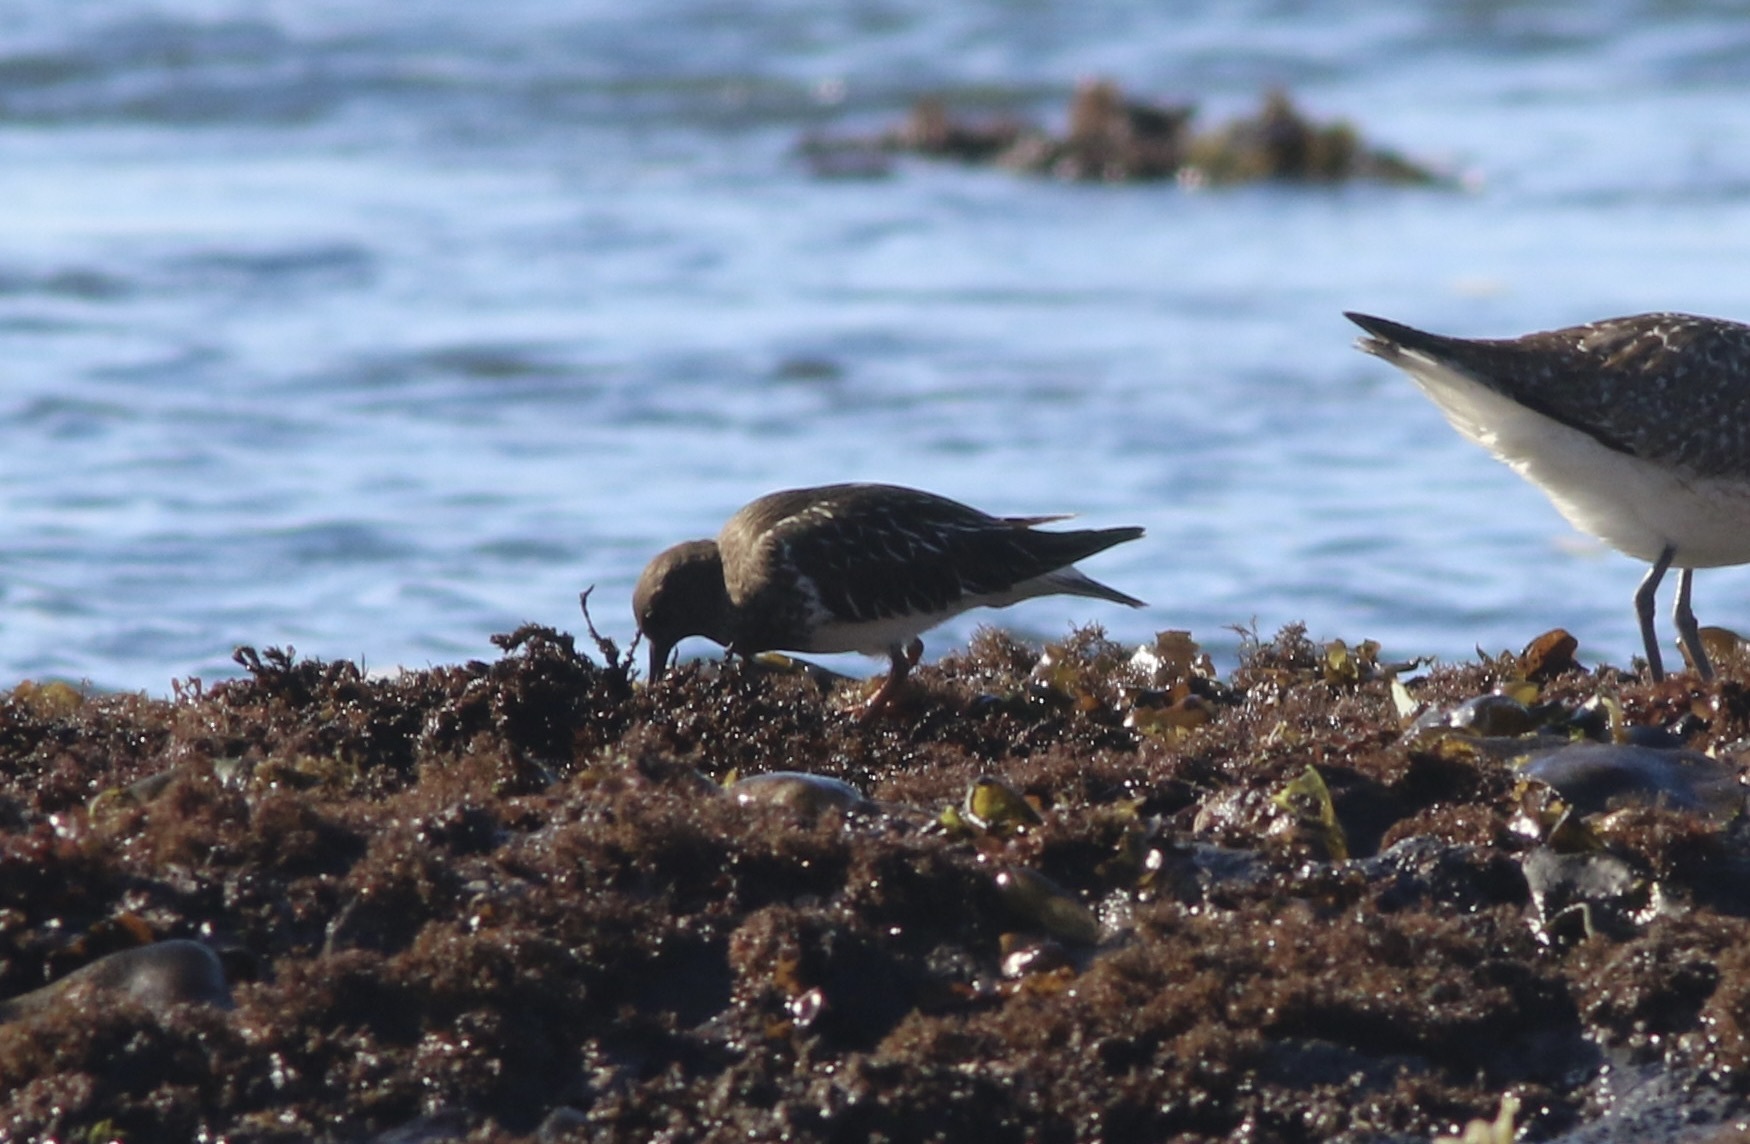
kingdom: Animalia
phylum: Chordata
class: Aves
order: Charadriiformes
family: Scolopacidae
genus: Arenaria
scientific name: Arenaria melanocephala
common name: Black turnstone
